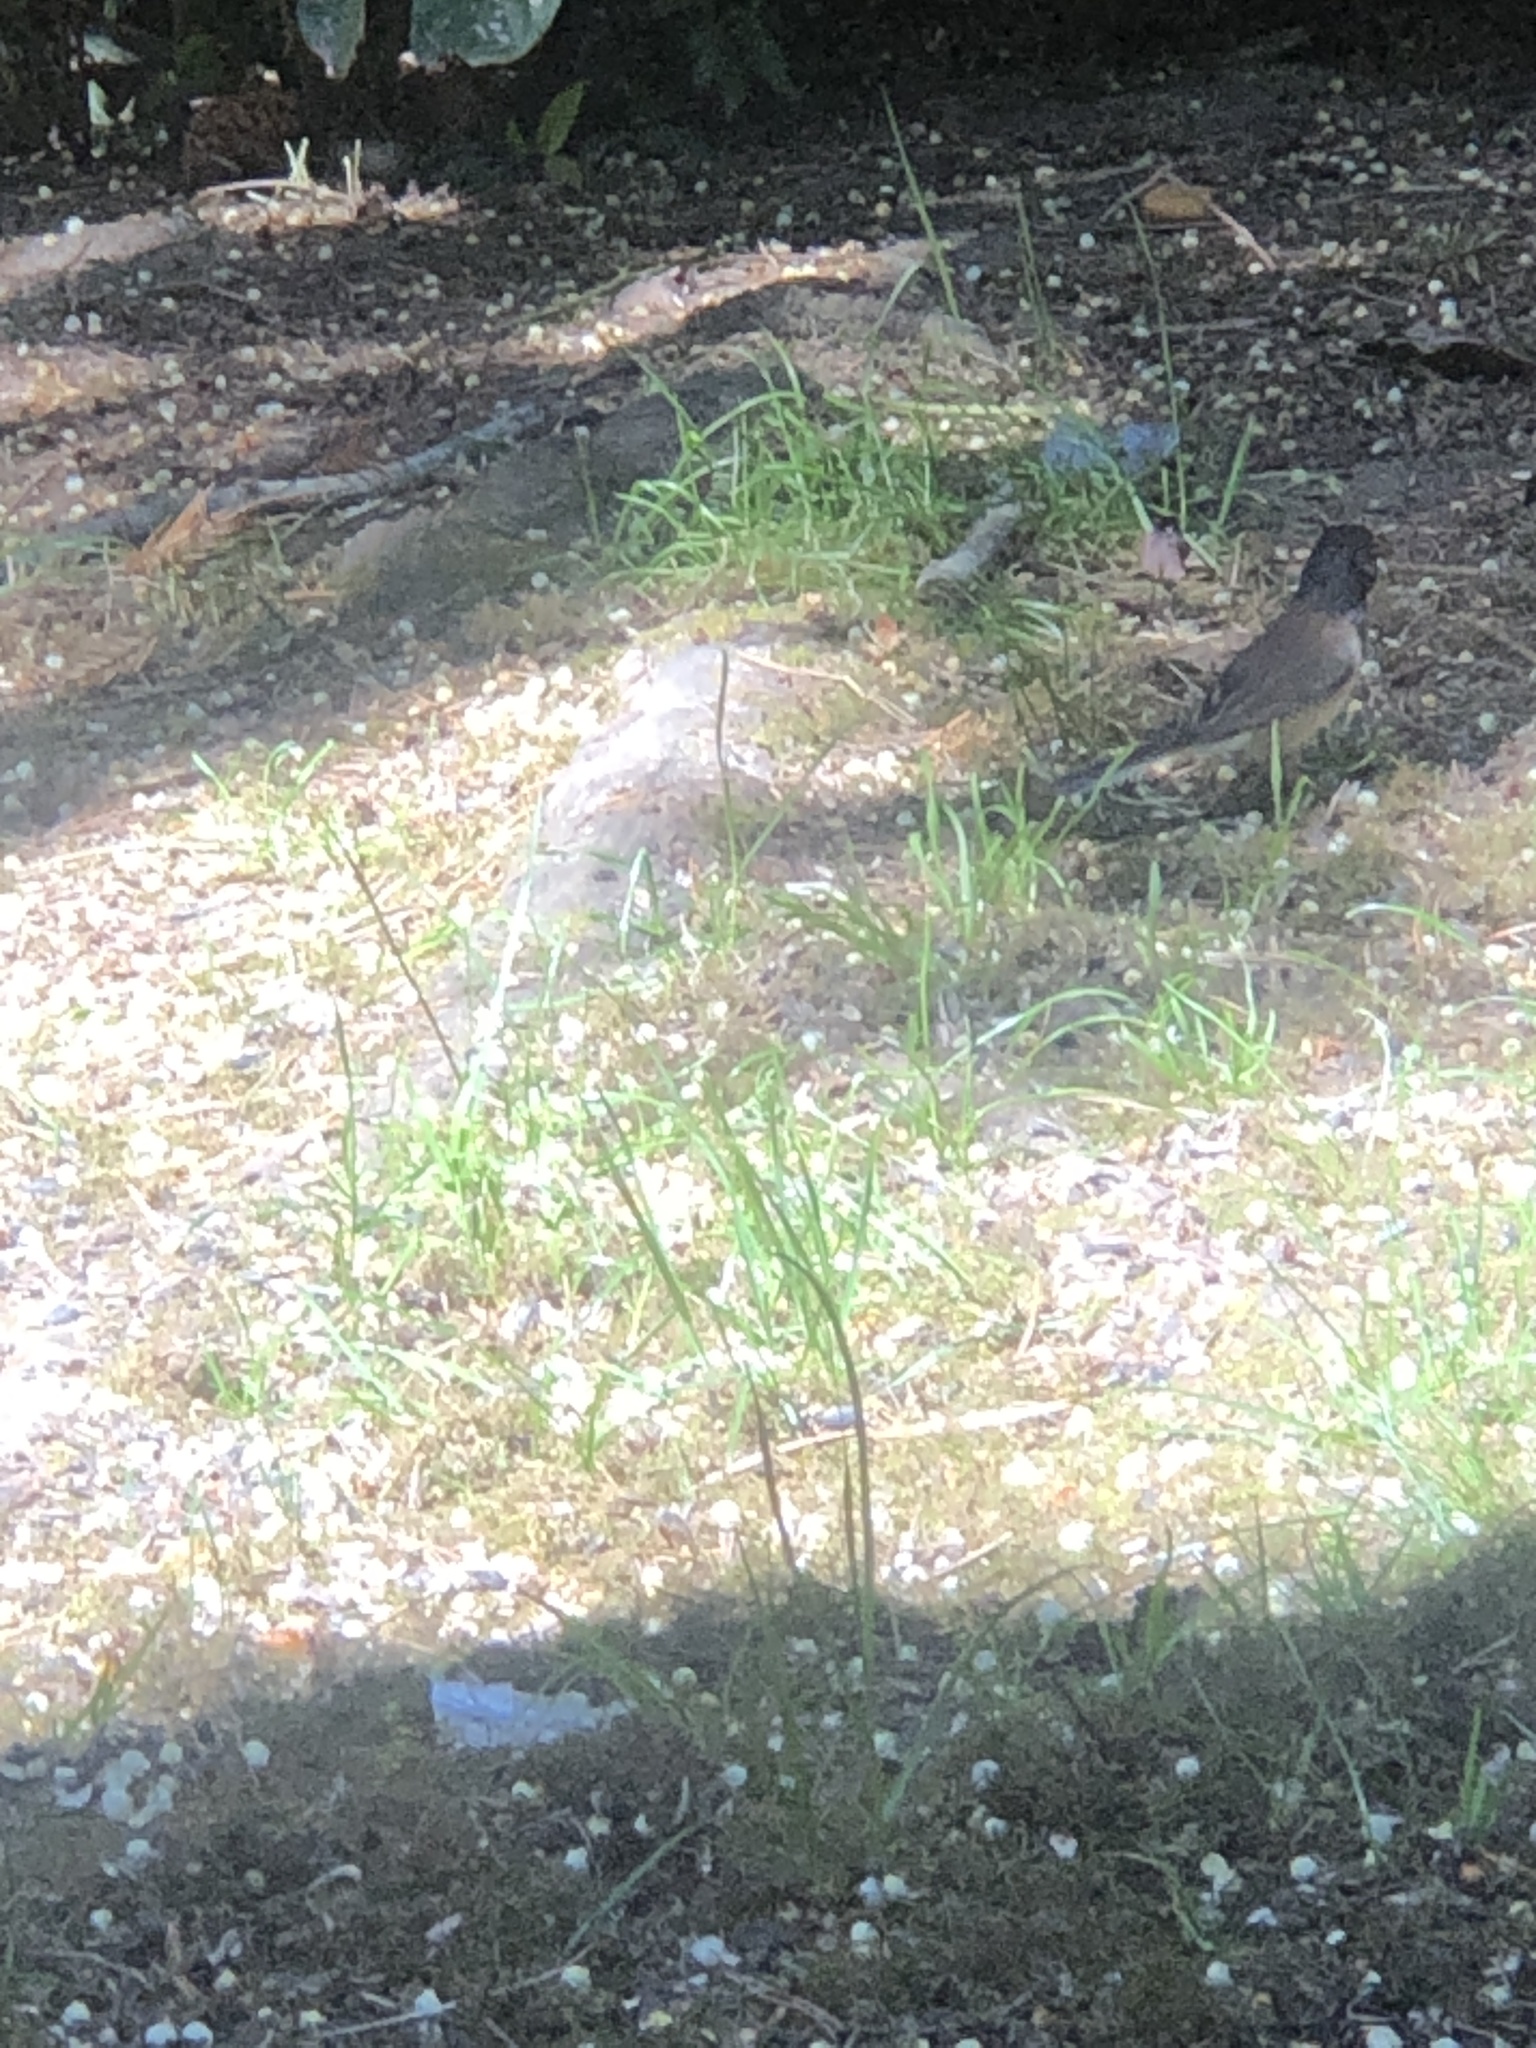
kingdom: Animalia
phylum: Chordata
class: Aves
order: Passeriformes
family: Passerellidae
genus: Junco
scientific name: Junco hyemalis
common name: Dark-eyed junco
